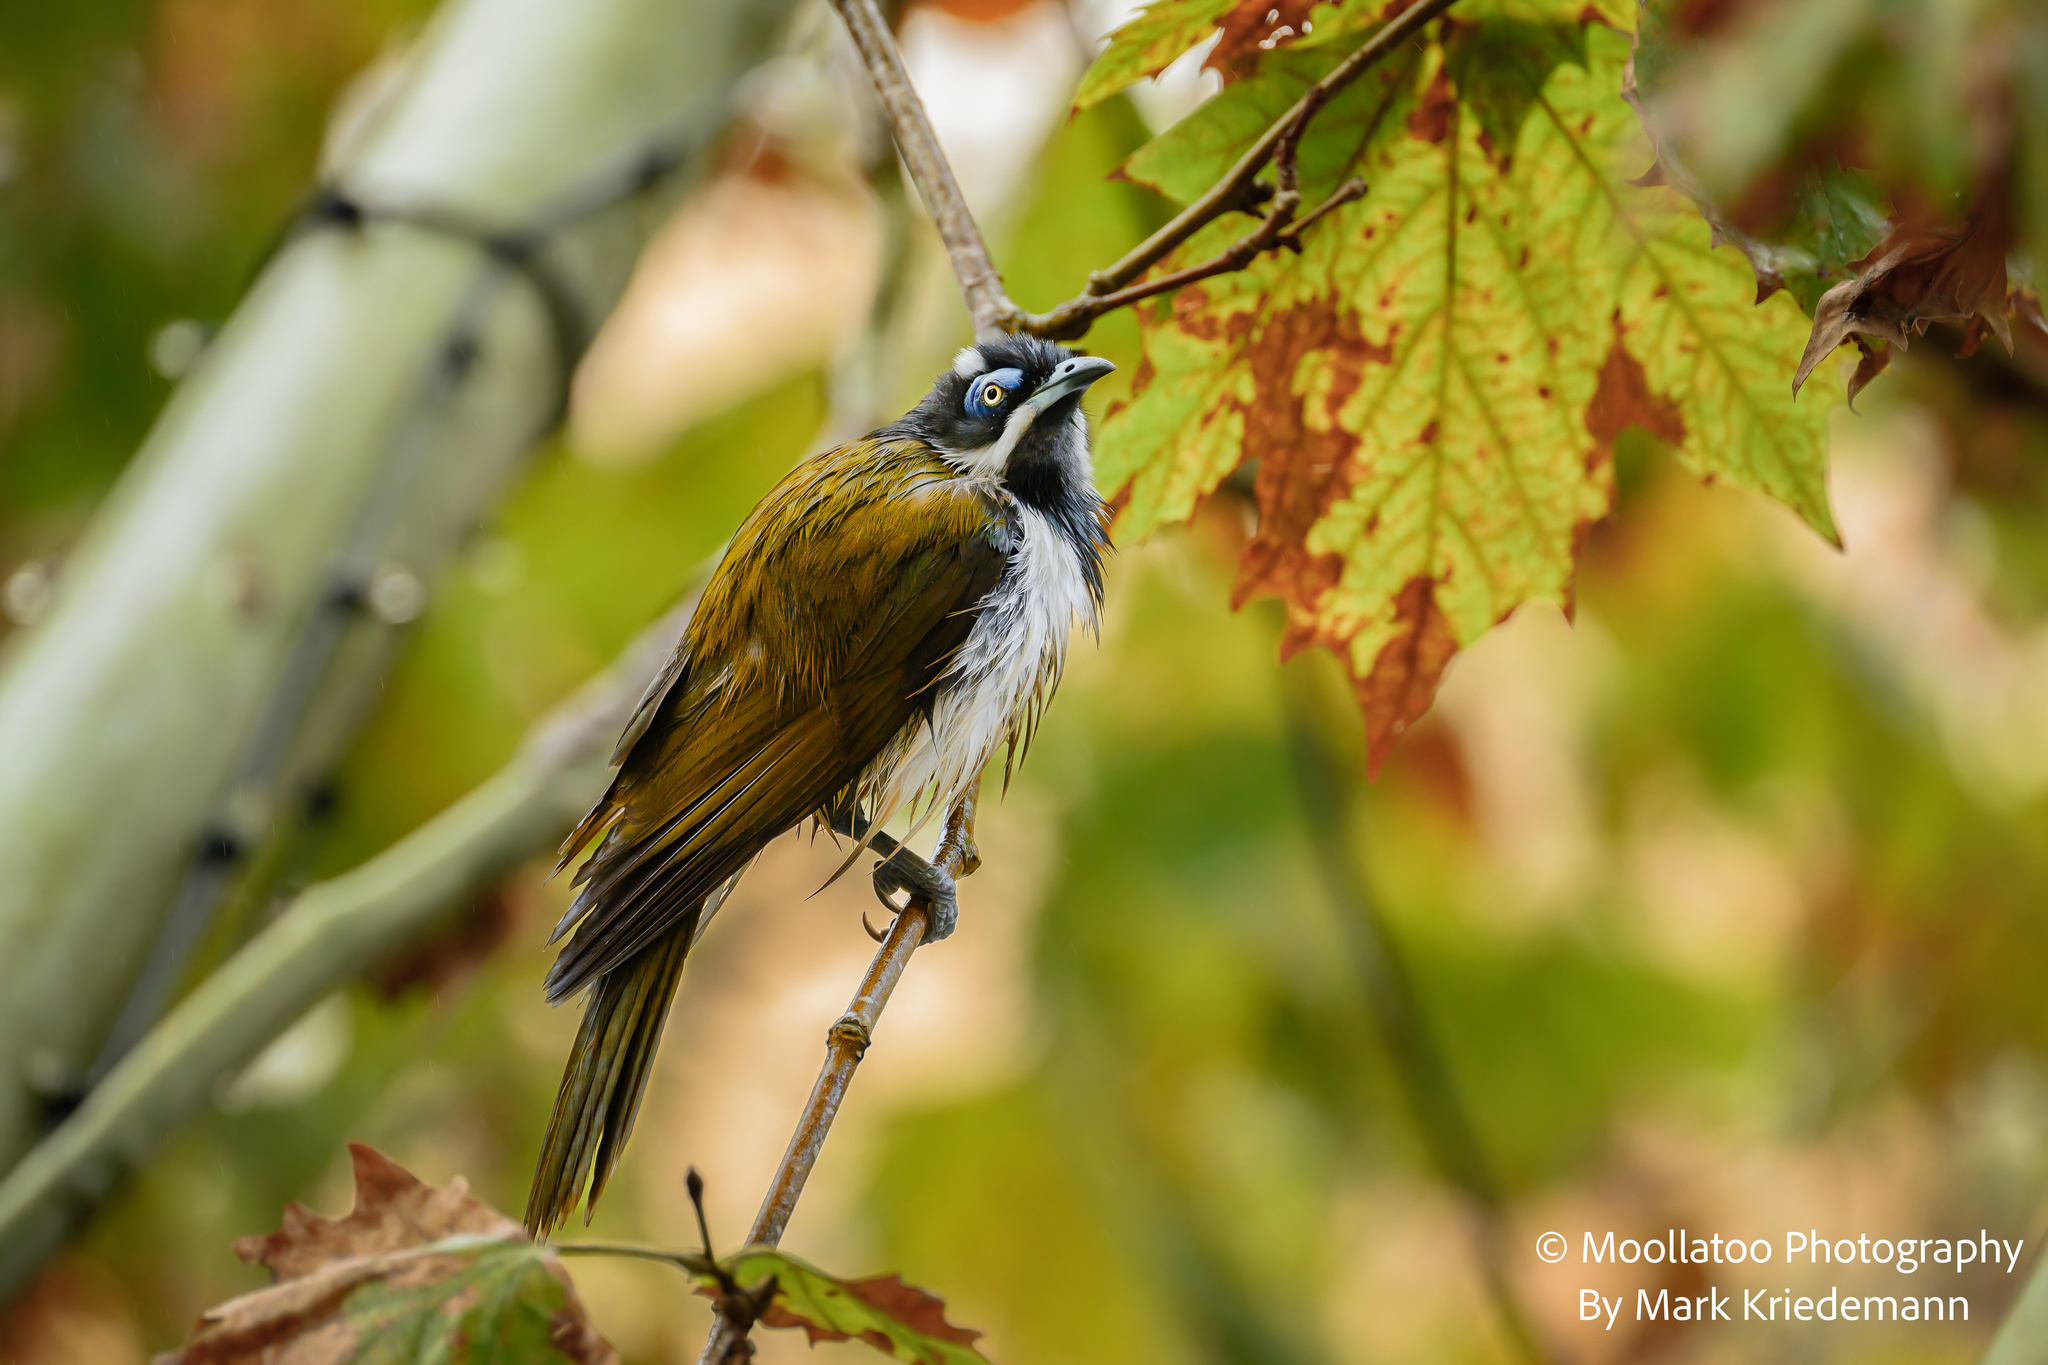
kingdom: Animalia
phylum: Chordata
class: Aves
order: Passeriformes
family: Meliphagidae
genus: Entomyzon
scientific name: Entomyzon cyanotis
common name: Blue-faced honeyeater
